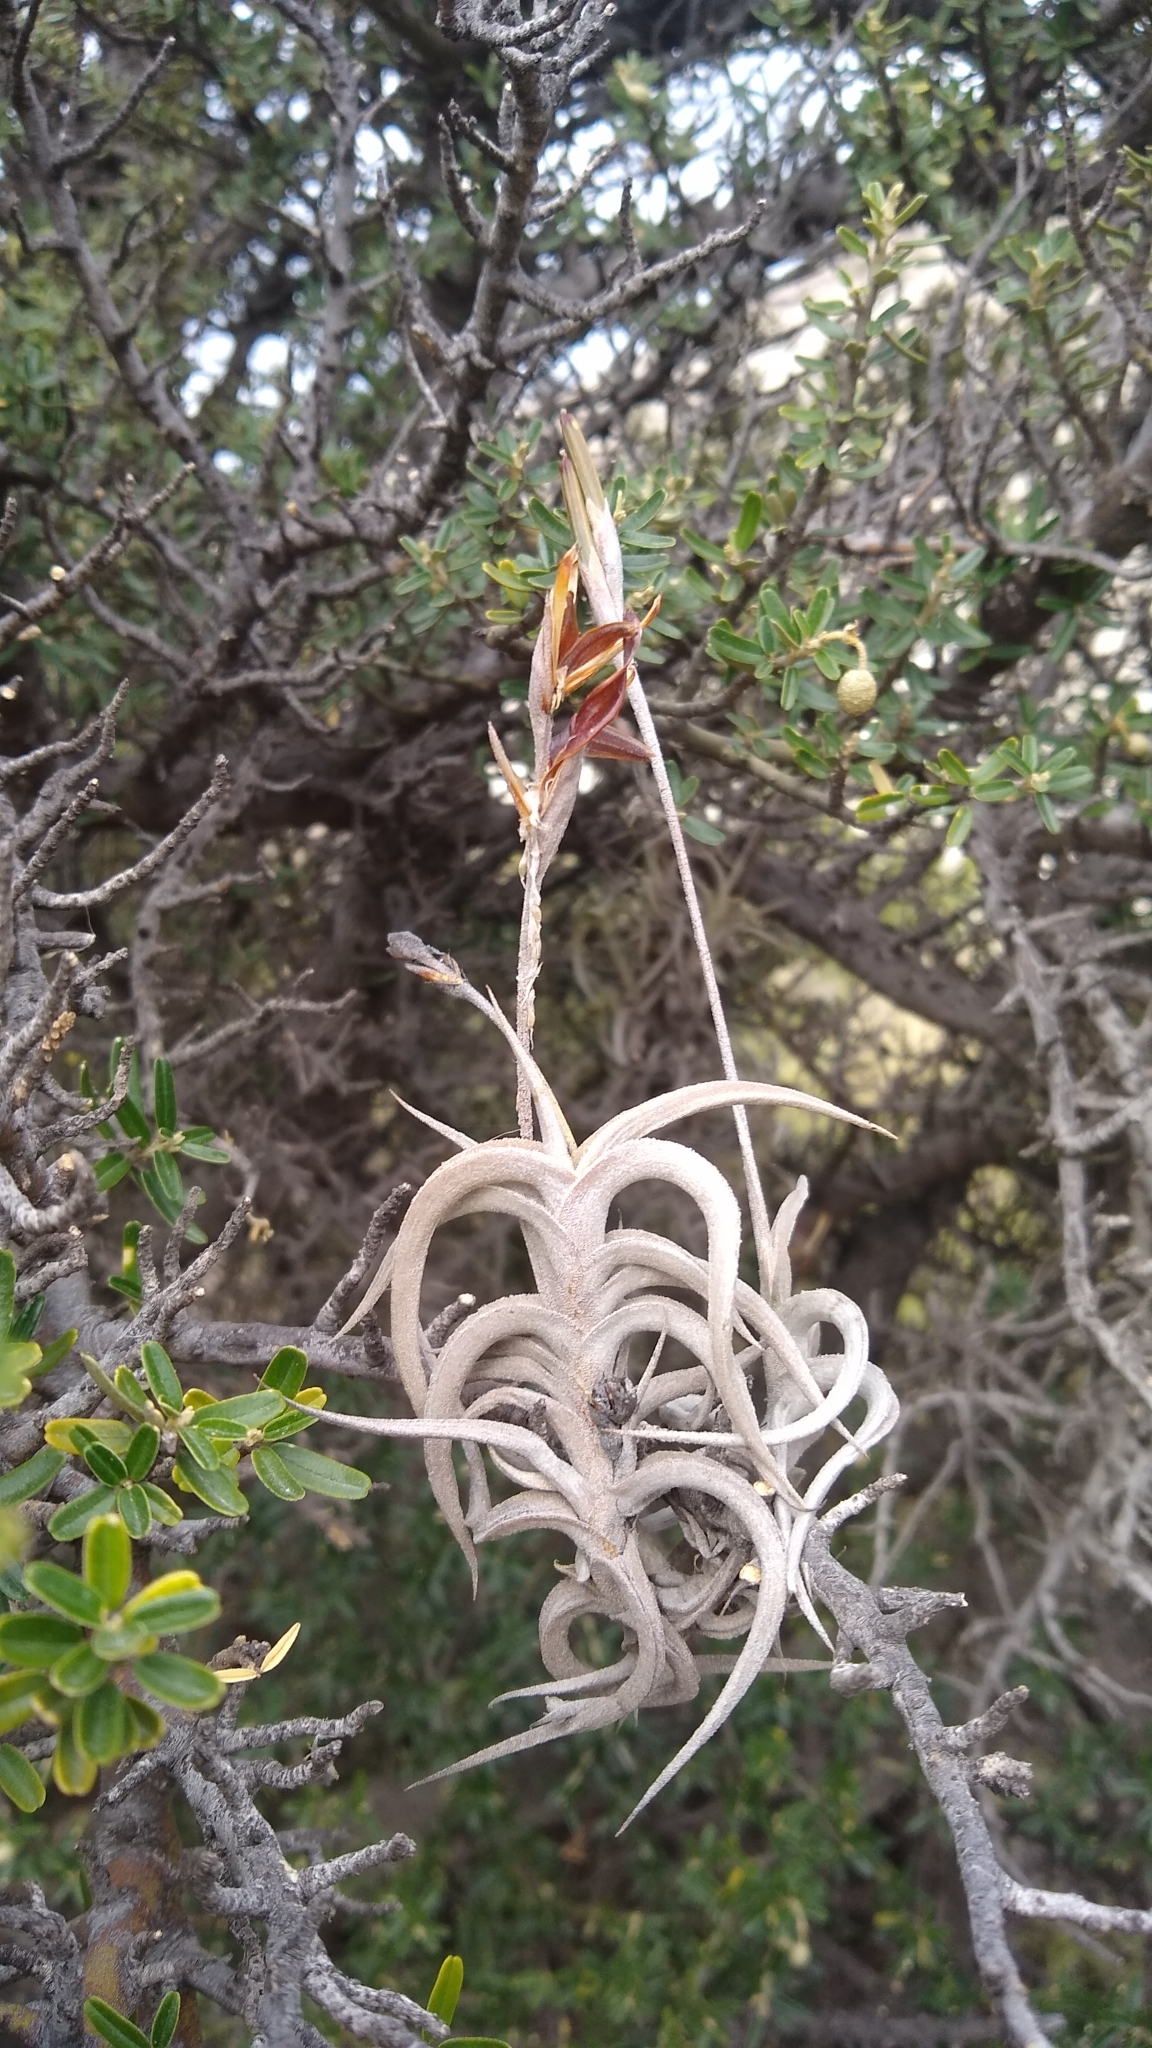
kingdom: Plantae
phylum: Tracheophyta
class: Liliopsida
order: Poales
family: Bromeliaceae
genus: Tillandsia
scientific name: Tillandsia gilliesii
